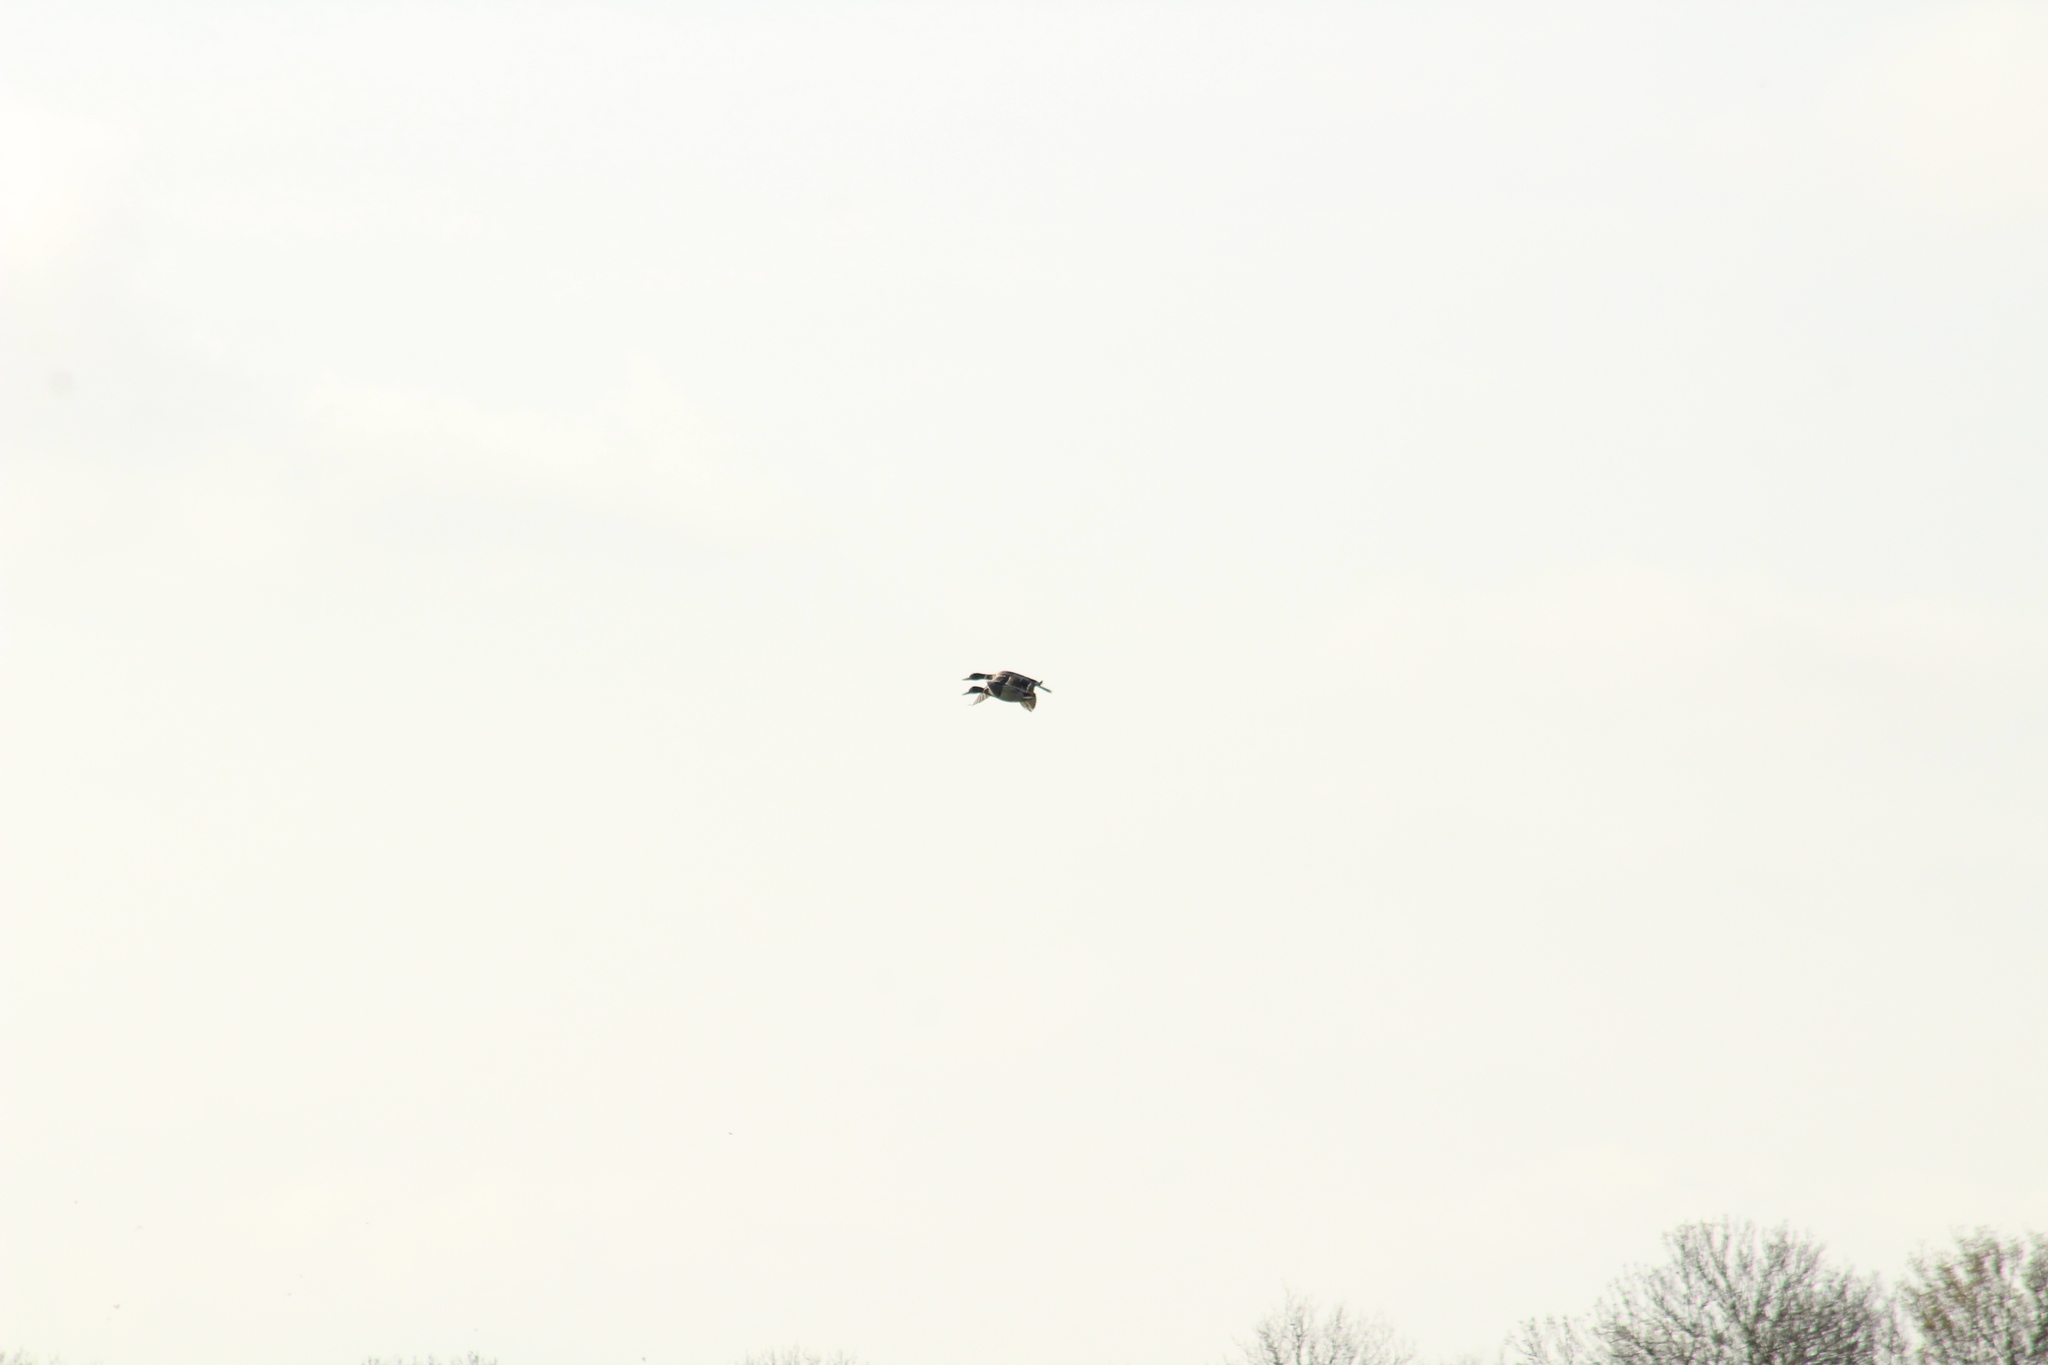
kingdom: Animalia
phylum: Chordata
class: Aves
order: Anseriformes
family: Anatidae
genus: Anas
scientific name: Anas platyrhynchos
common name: Mallard
